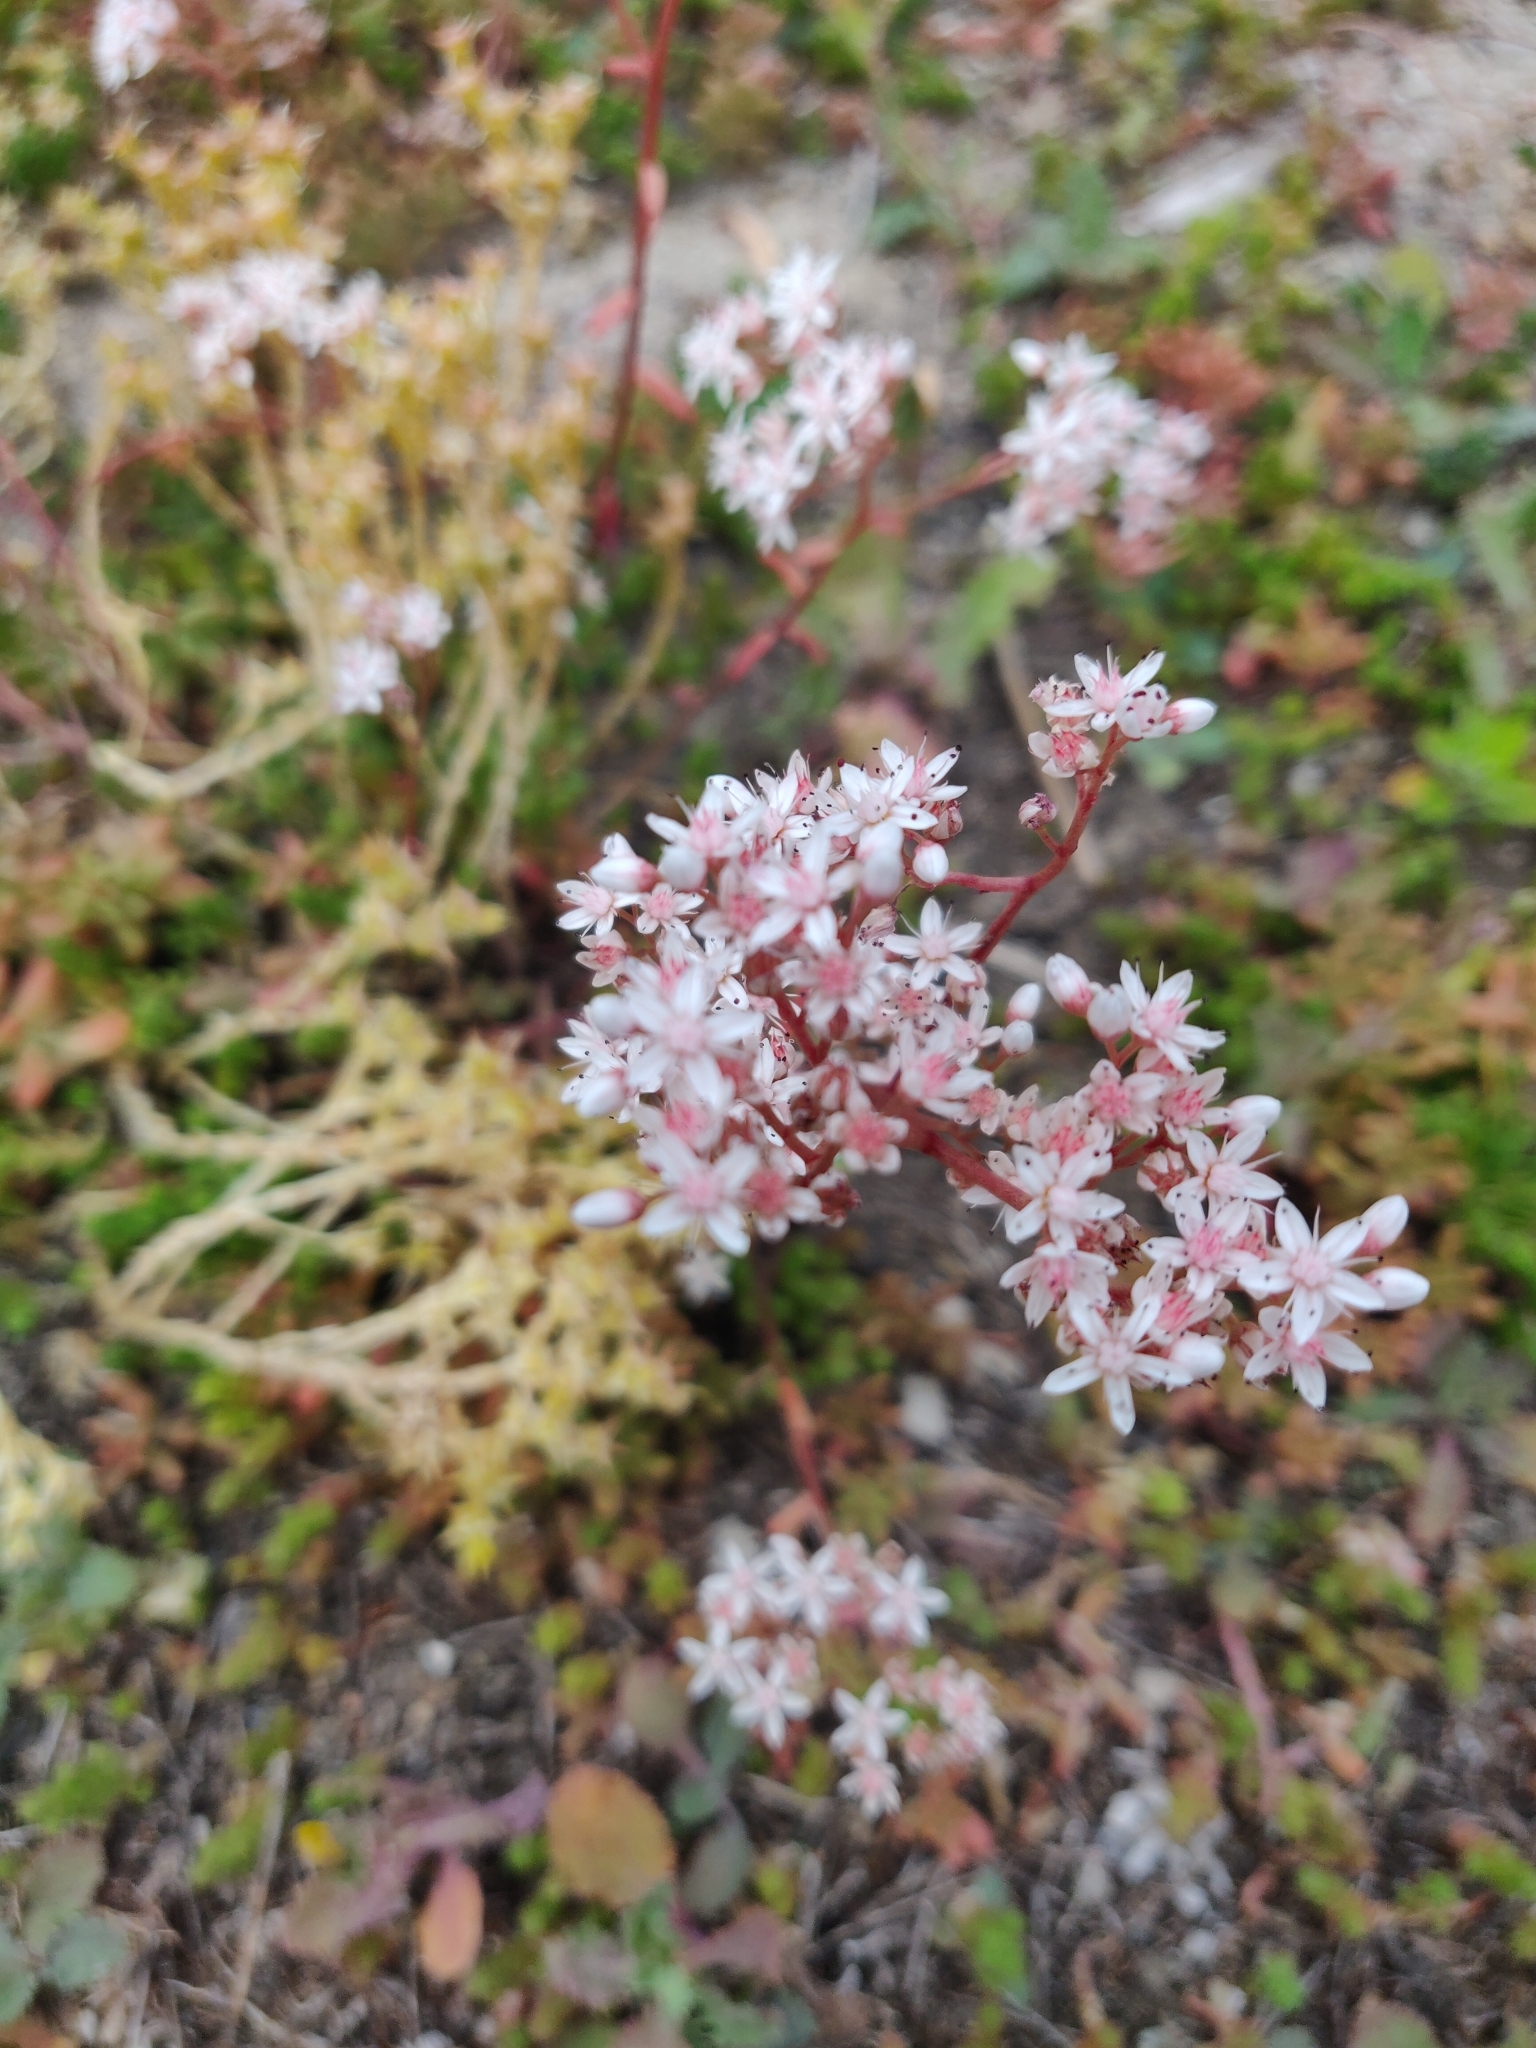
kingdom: Plantae
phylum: Tracheophyta
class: Magnoliopsida
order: Saxifragales
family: Crassulaceae
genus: Sedum
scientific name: Sedum album
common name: White stonecrop
